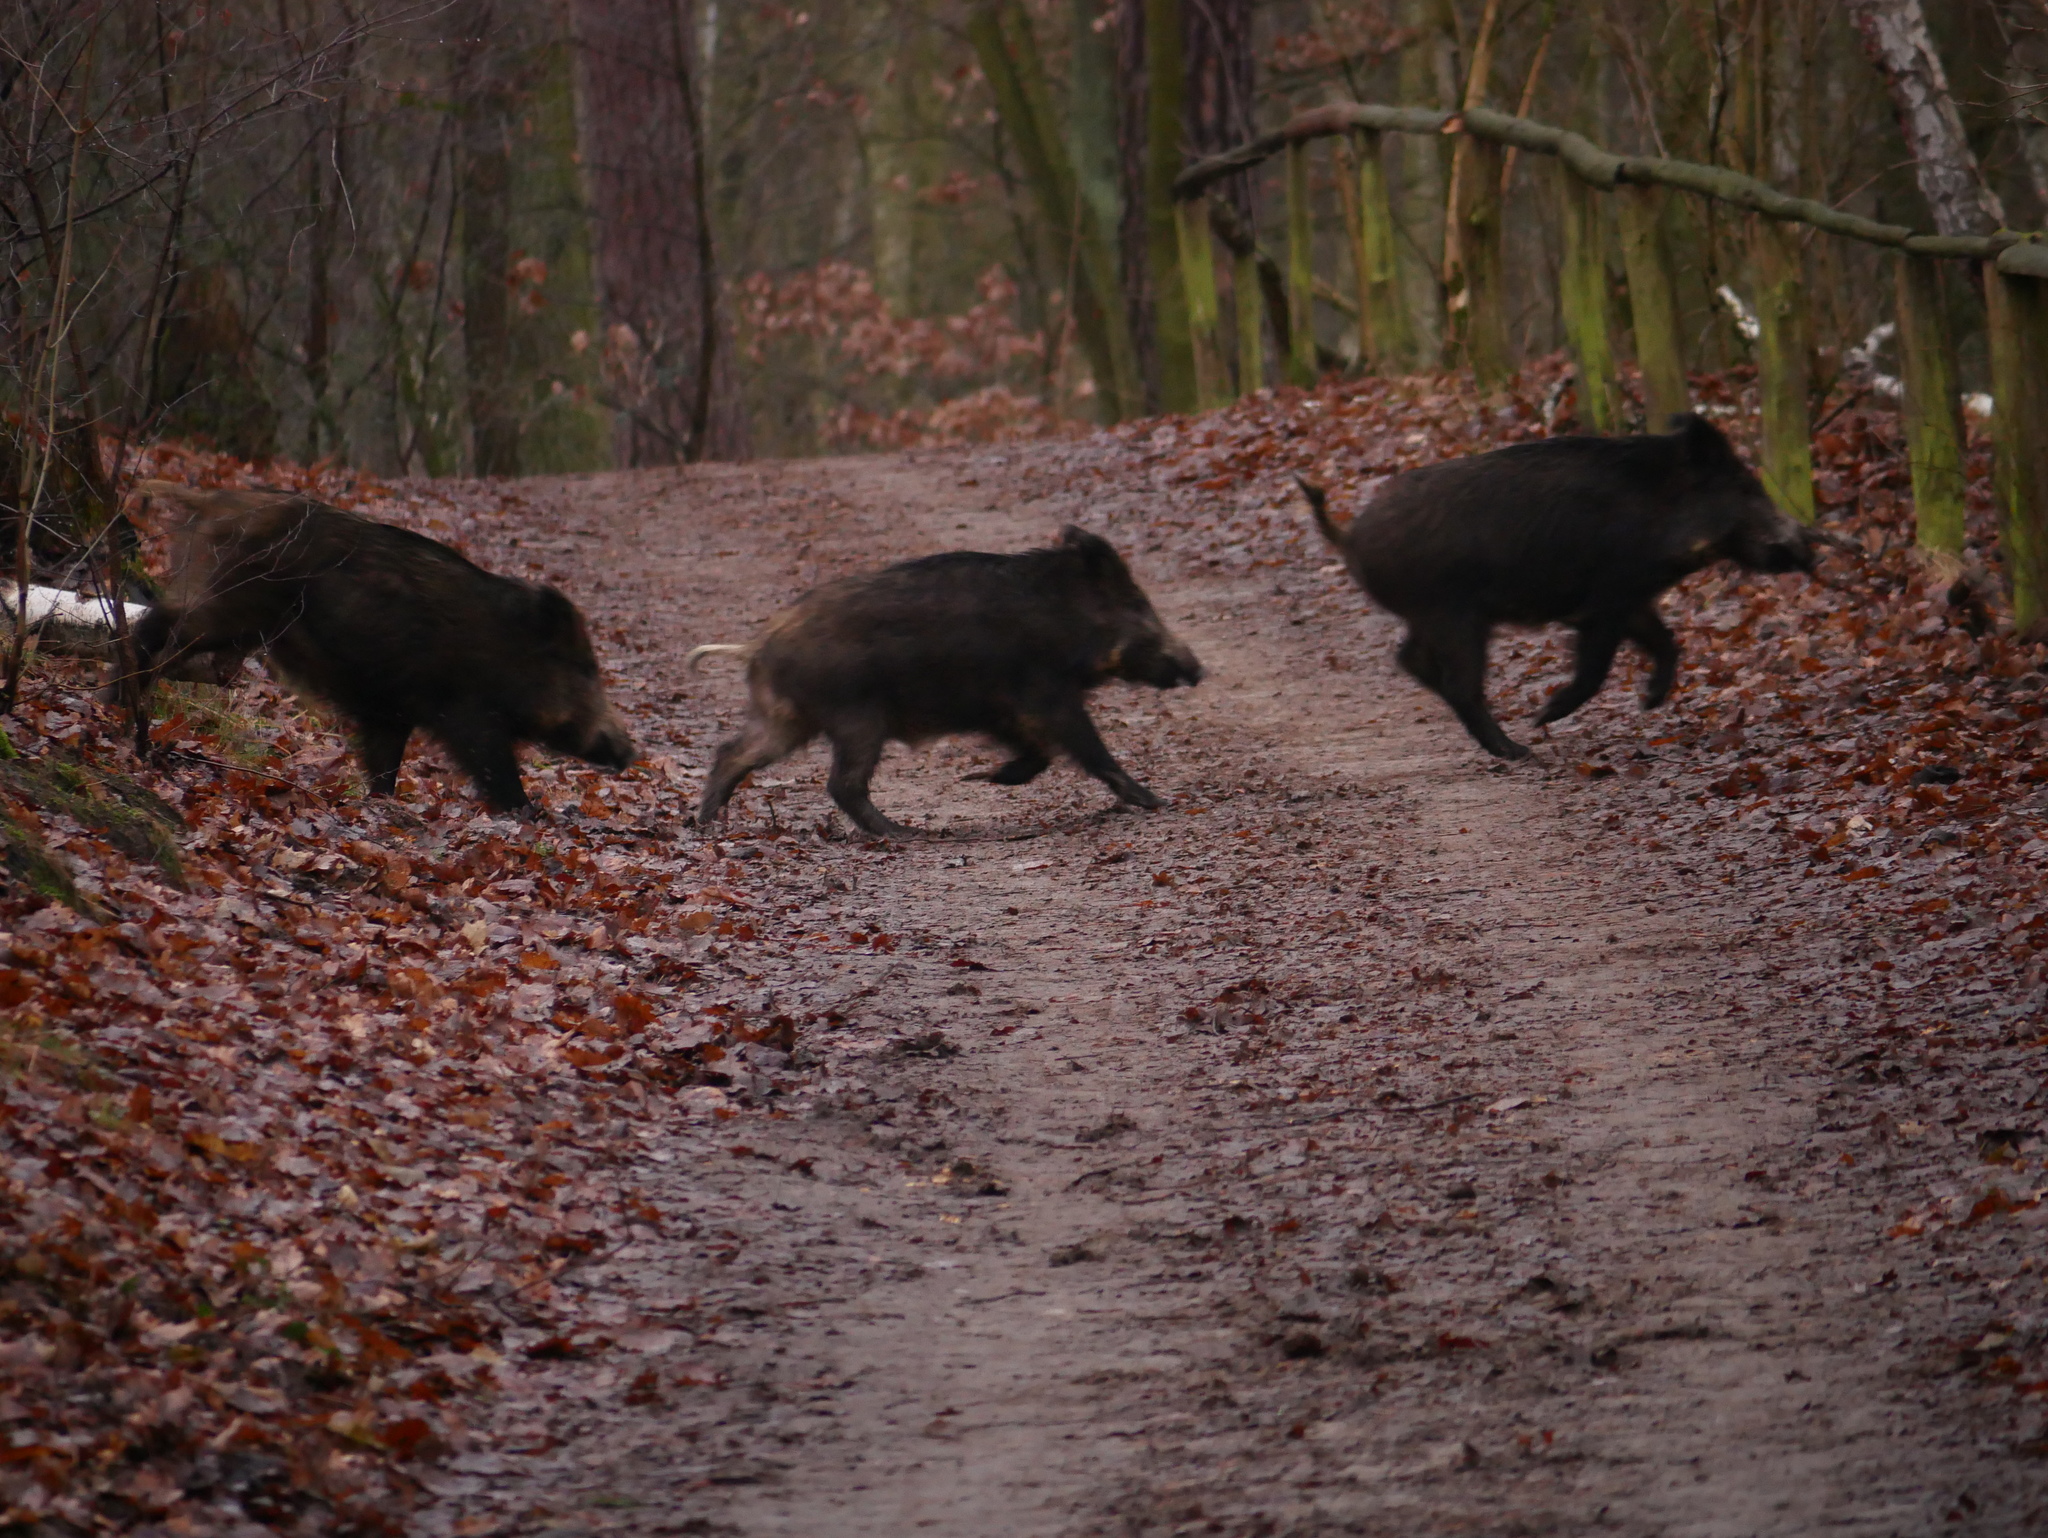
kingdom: Animalia
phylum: Chordata
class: Mammalia
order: Artiodactyla
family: Suidae
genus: Sus
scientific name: Sus scrofa
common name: Wild boar
